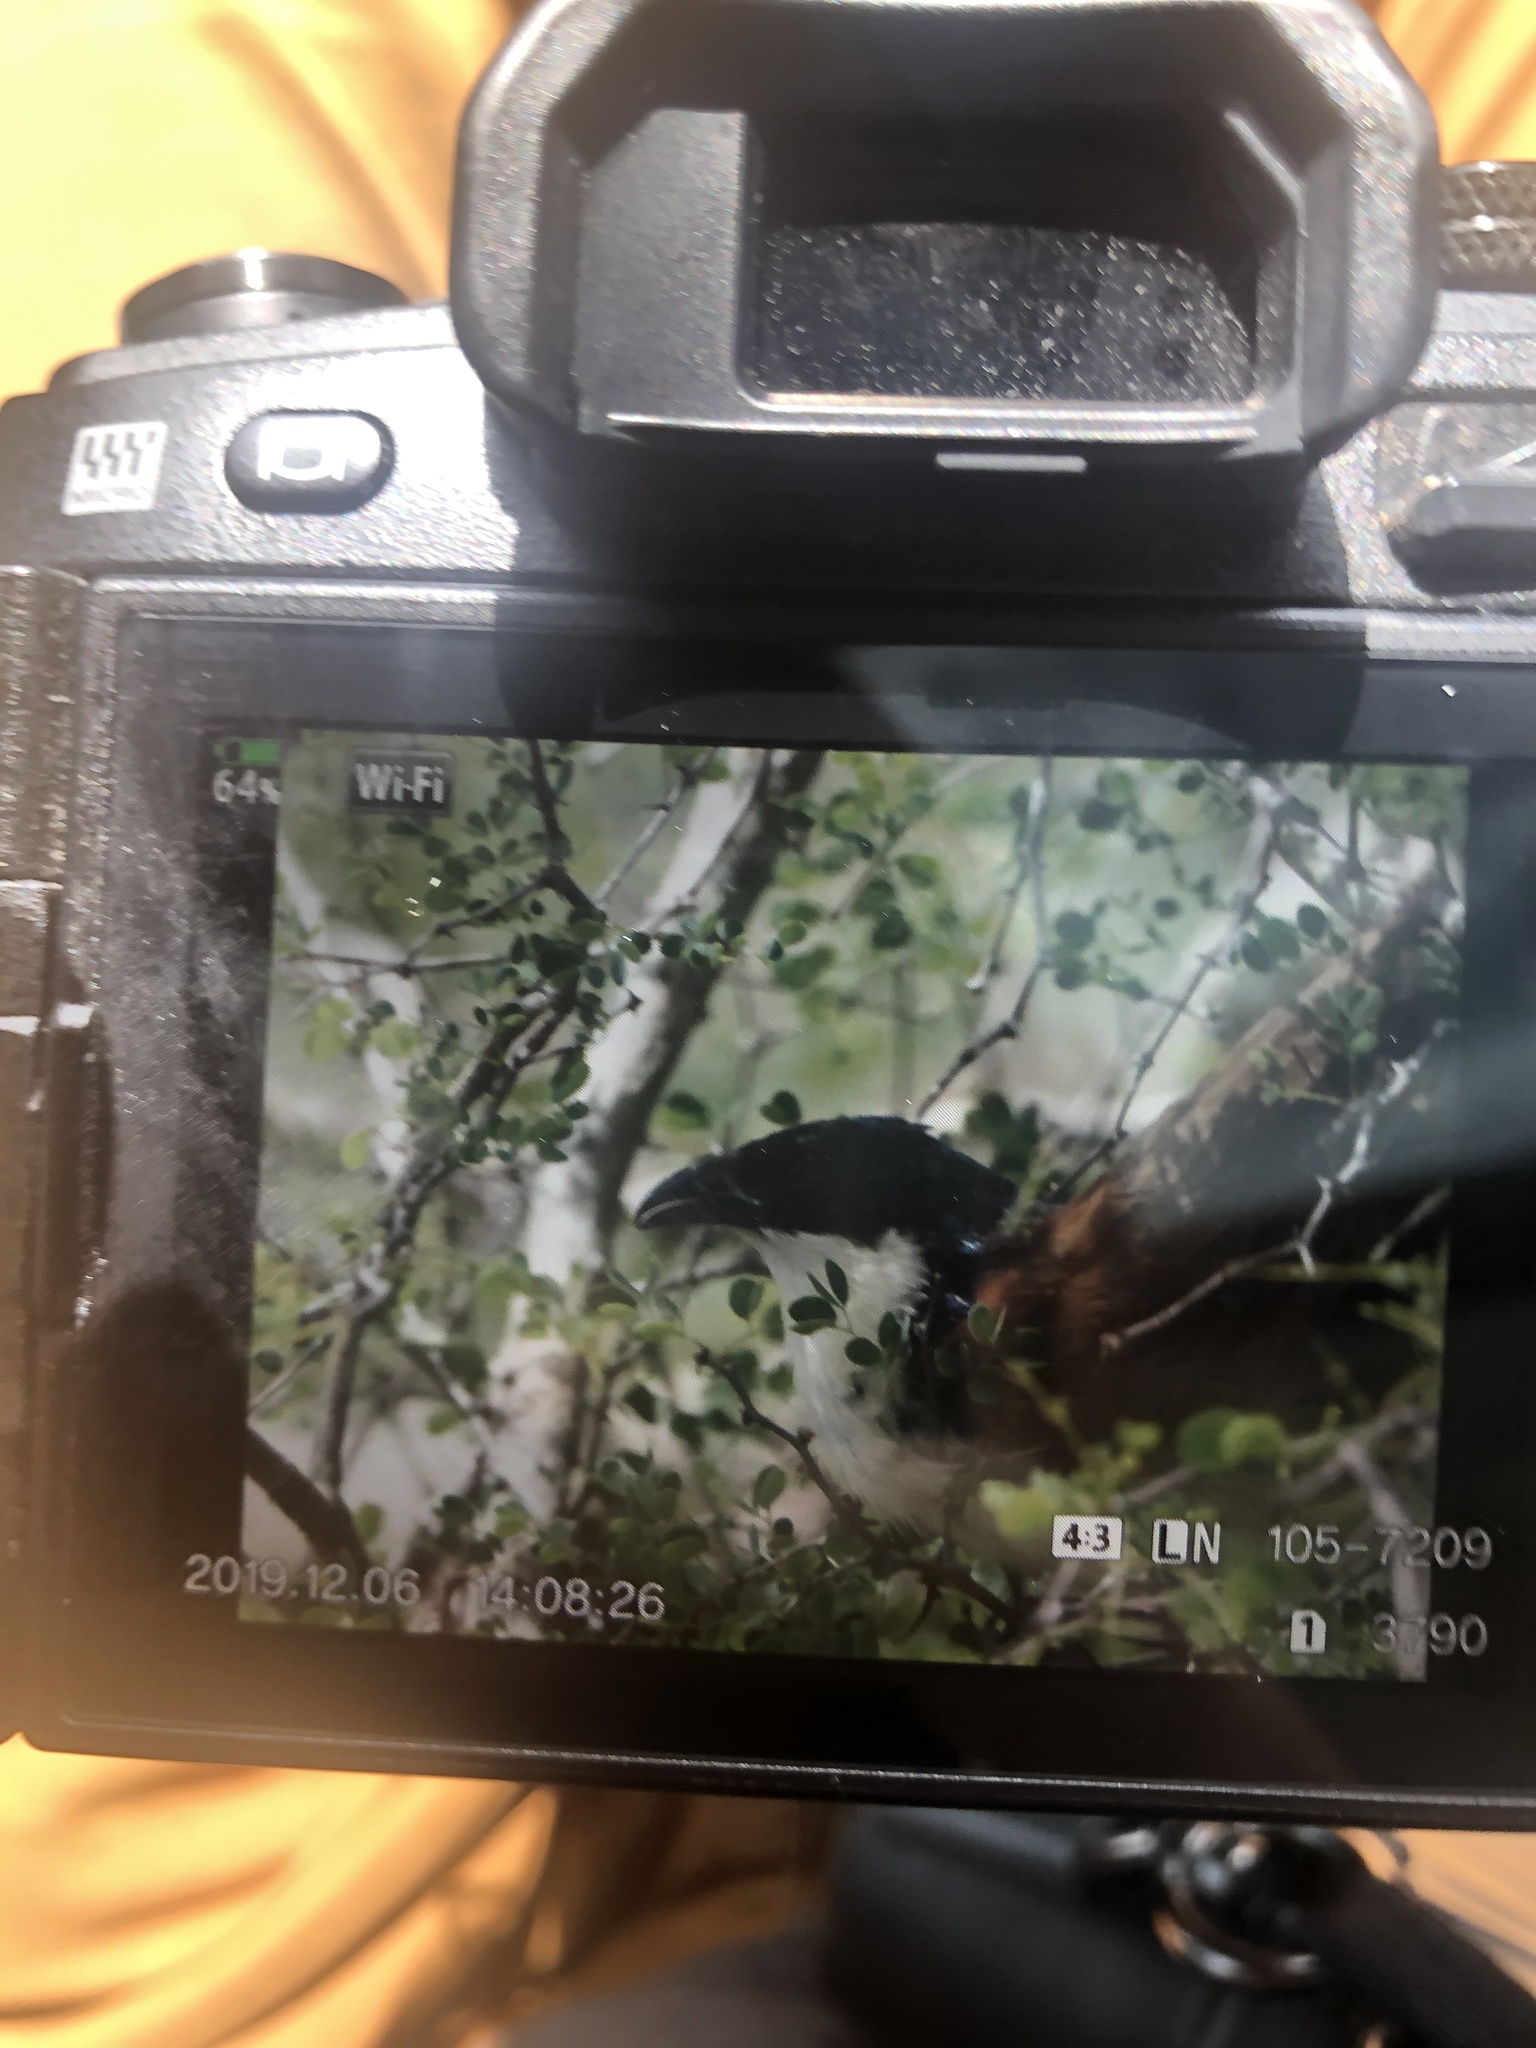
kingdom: Animalia
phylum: Chordata
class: Aves
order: Cuculiformes
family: Cuculidae
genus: Centropus
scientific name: Centropus superciliosus
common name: White-browed coucal
